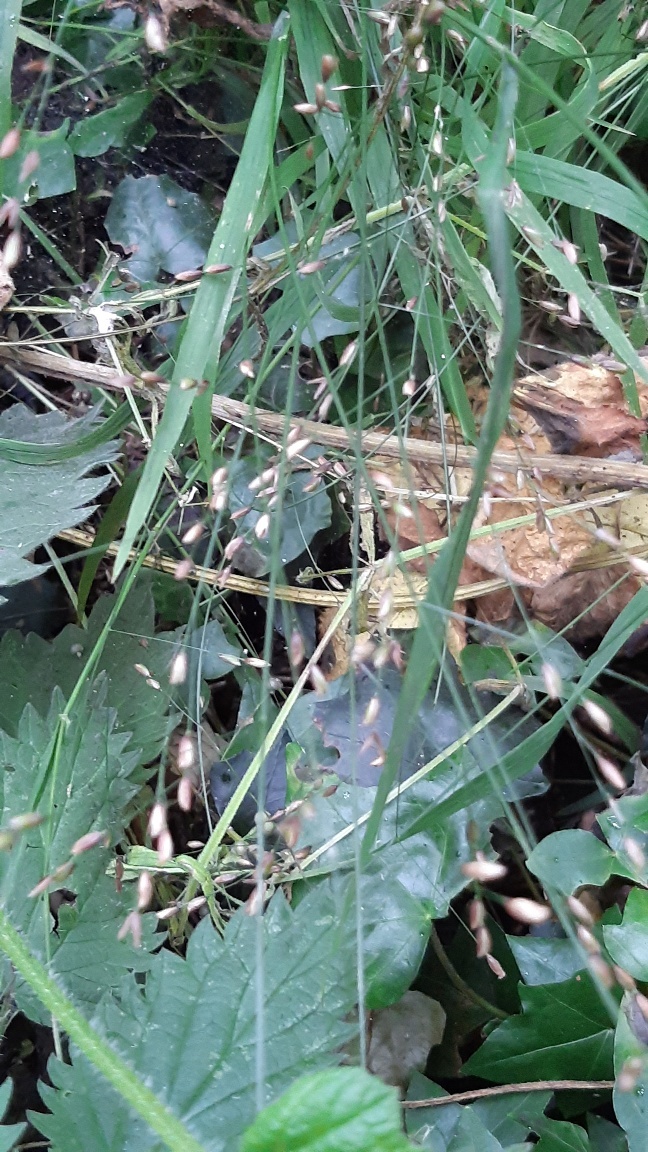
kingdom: Plantae
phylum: Tracheophyta
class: Liliopsida
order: Poales
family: Poaceae
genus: Melica
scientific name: Melica uniflora
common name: Wood melick
